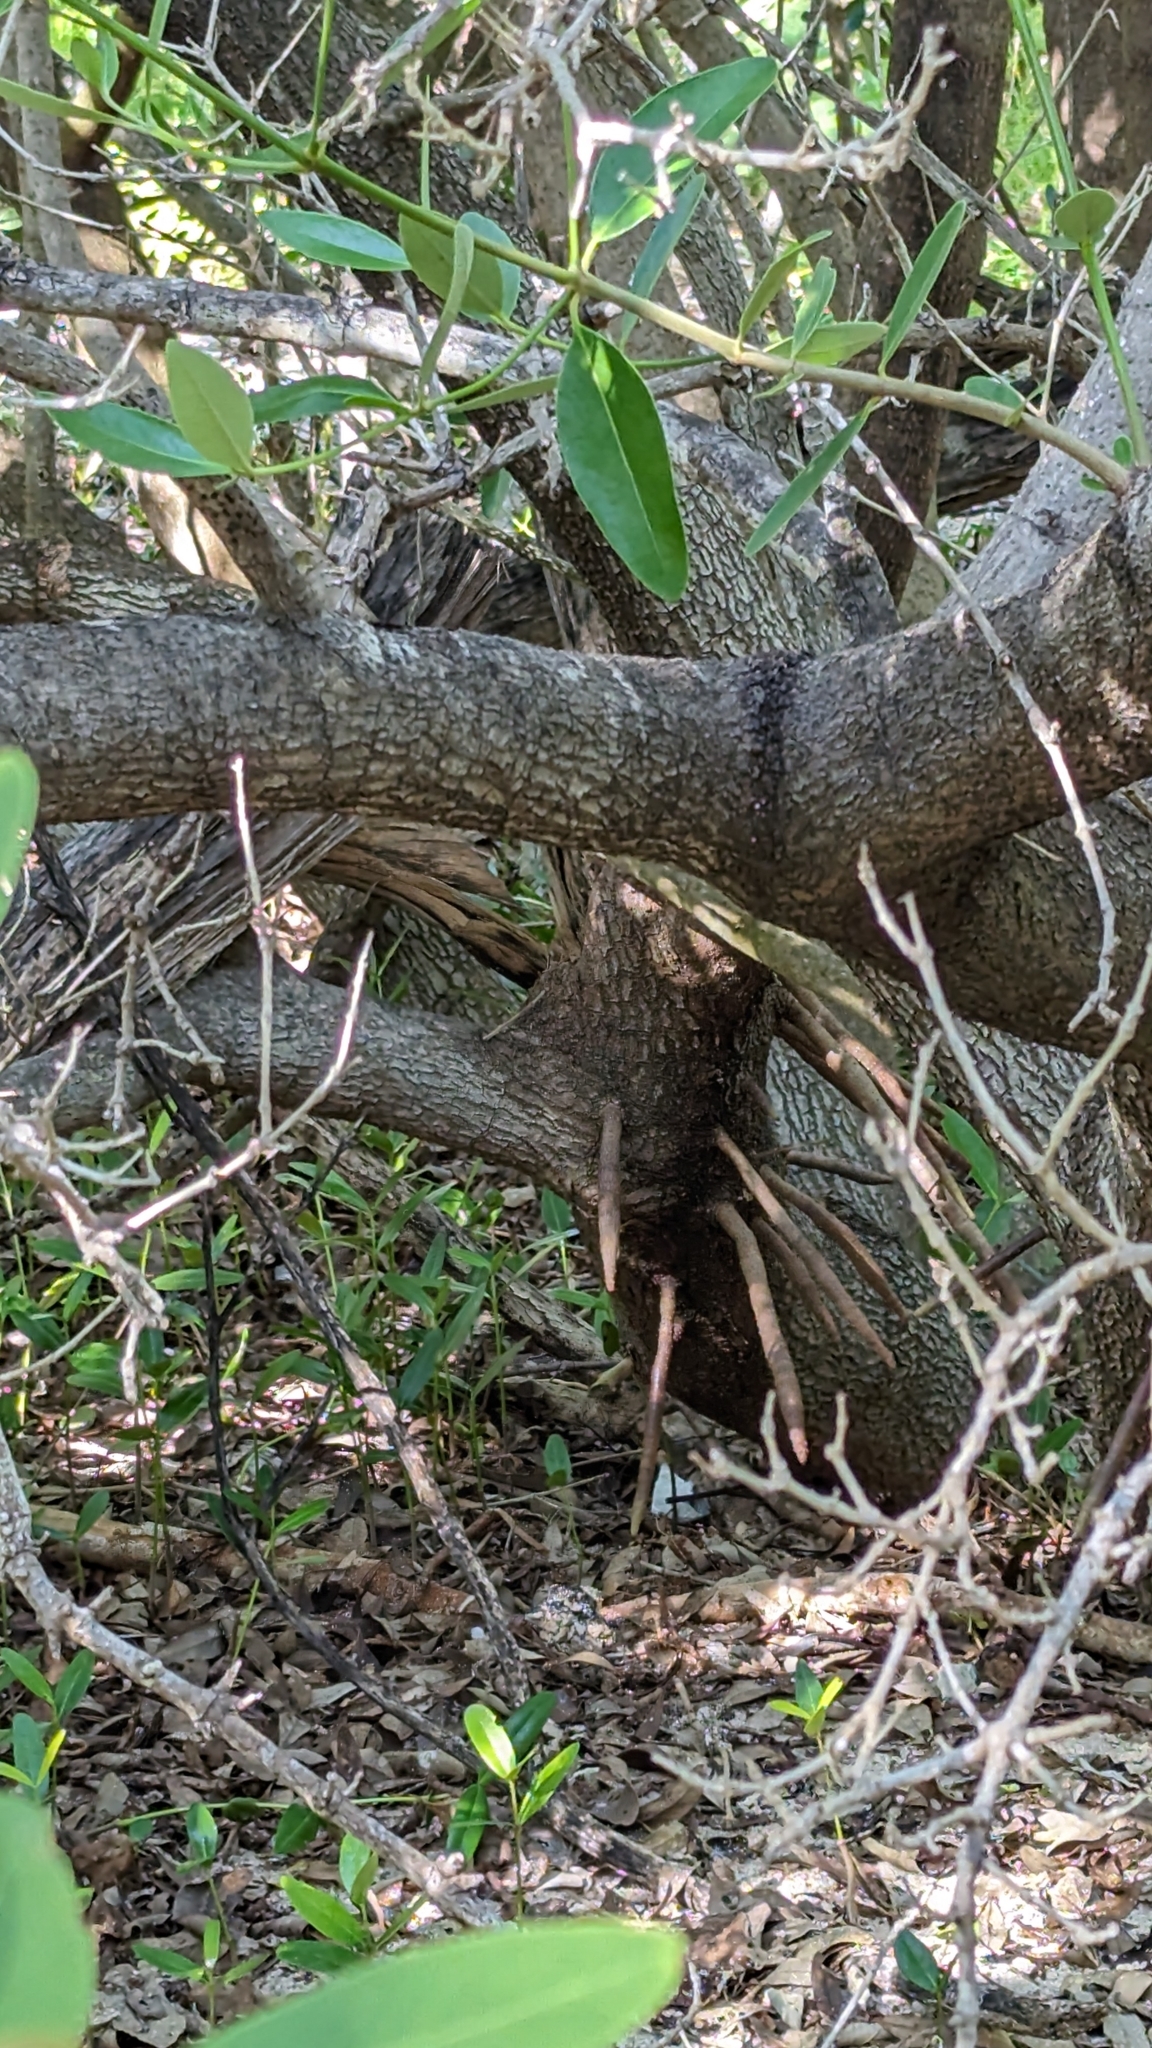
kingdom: Plantae
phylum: Tracheophyta
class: Magnoliopsida
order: Lamiales
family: Acanthaceae
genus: Avicennia
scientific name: Avicennia germinans
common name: Black mangrove
